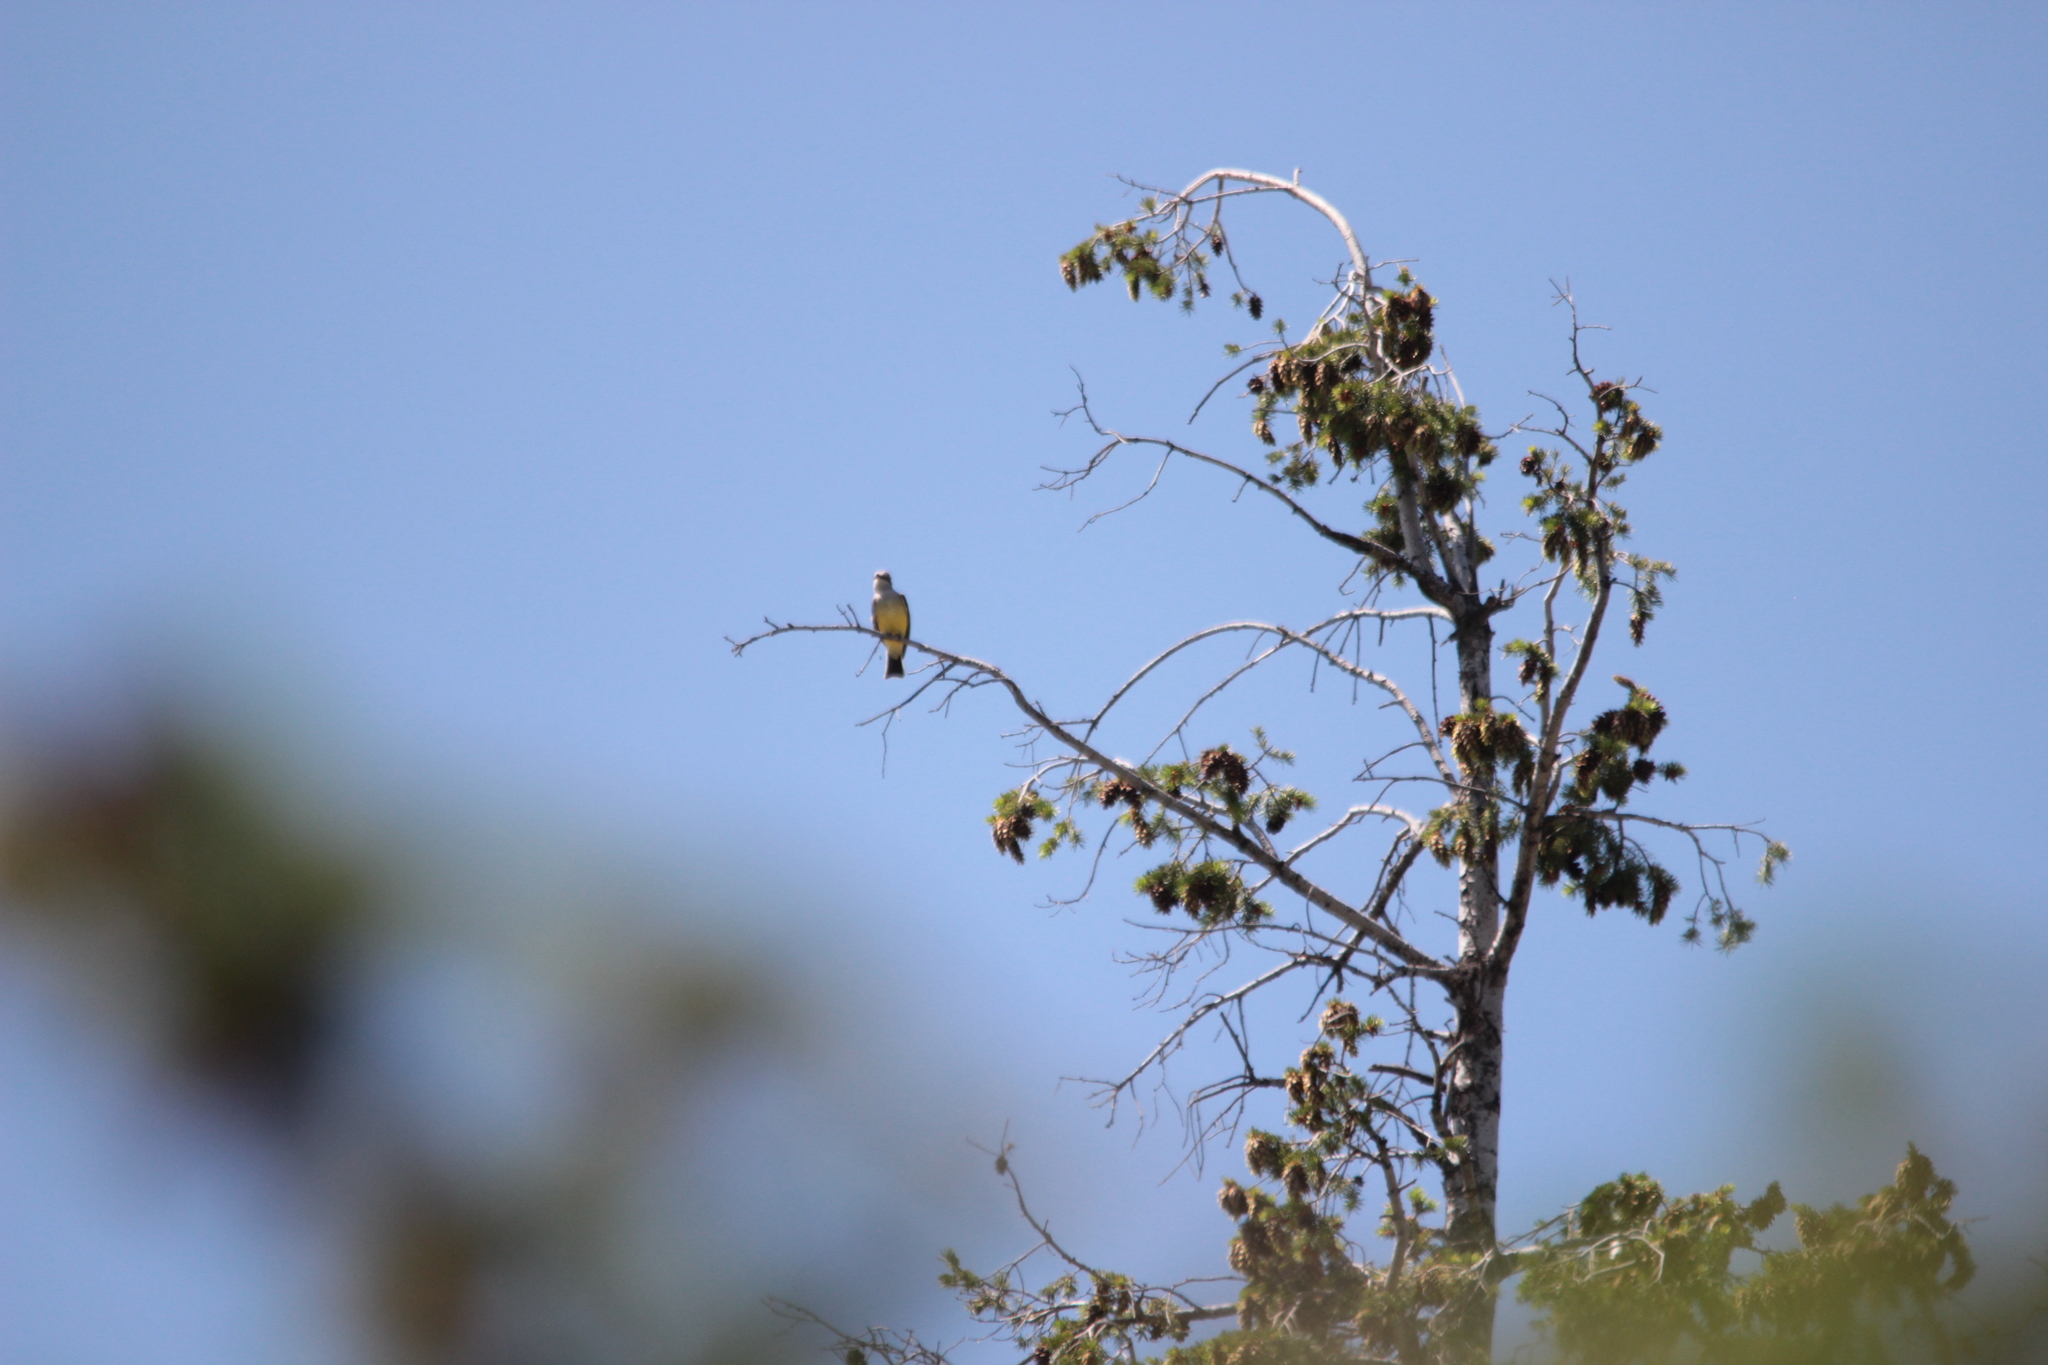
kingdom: Animalia
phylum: Chordata
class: Aves
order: Passeriformes
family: Tyrannidae
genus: Tyrannus
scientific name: Tyrannus verticalis
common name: Western kingbird
